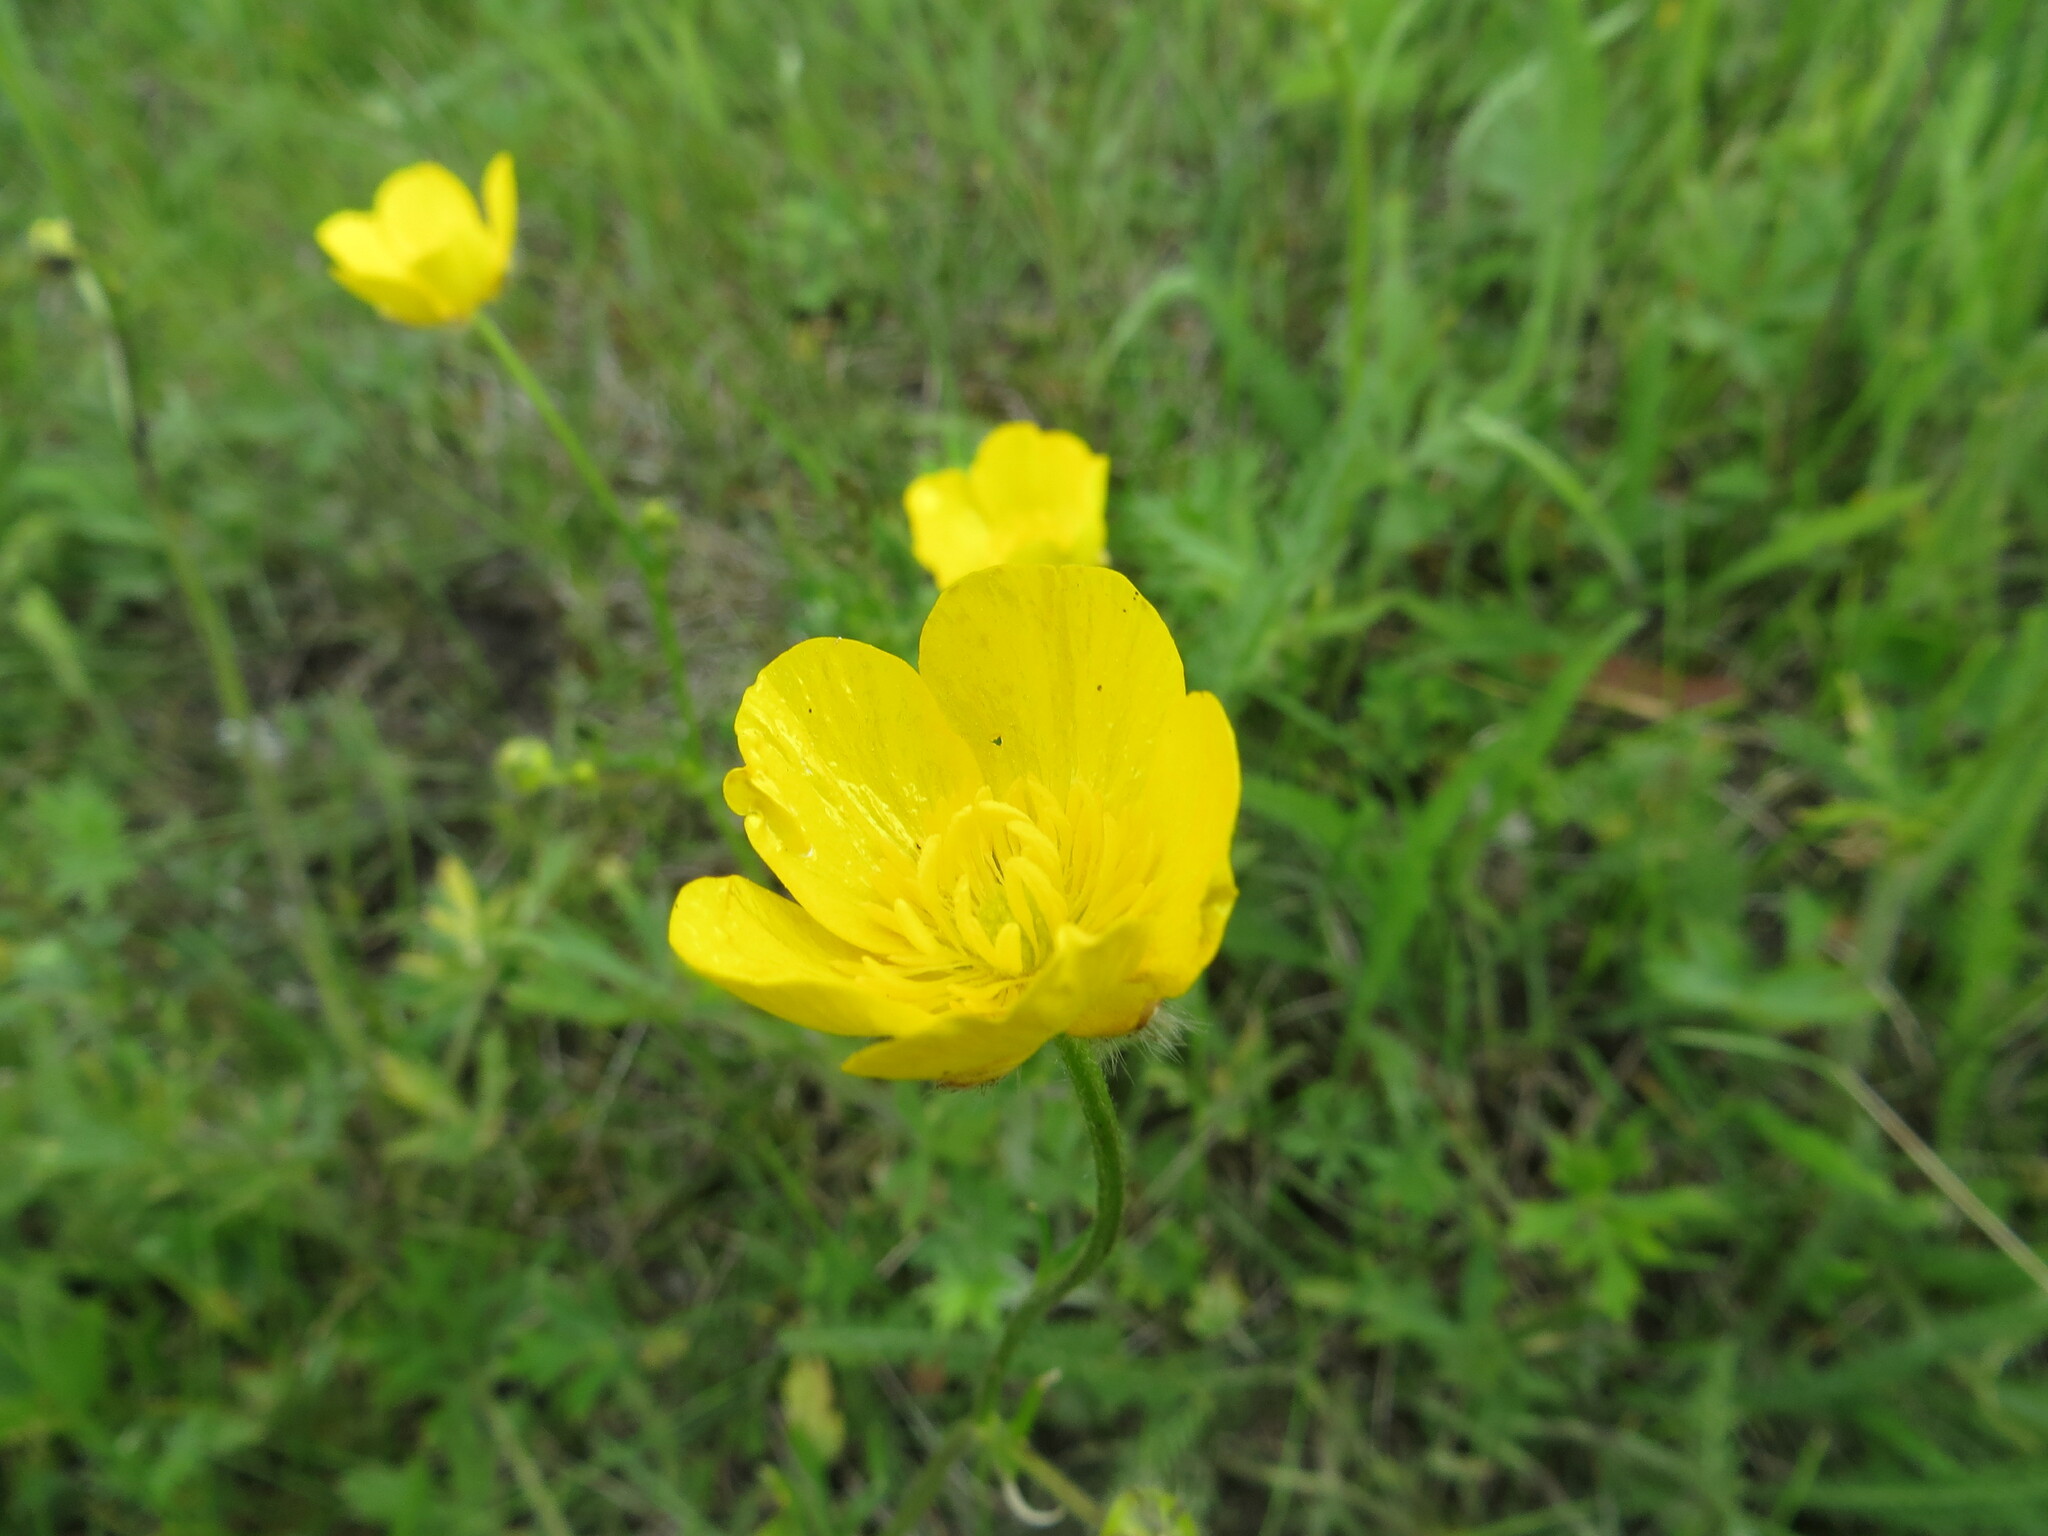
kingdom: Plantae
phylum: Tracheophyta
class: Magnoliopsida
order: Ranunculales
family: Ranunculaceae
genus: Ranunculus
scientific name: Ranunculus polyanthemos
